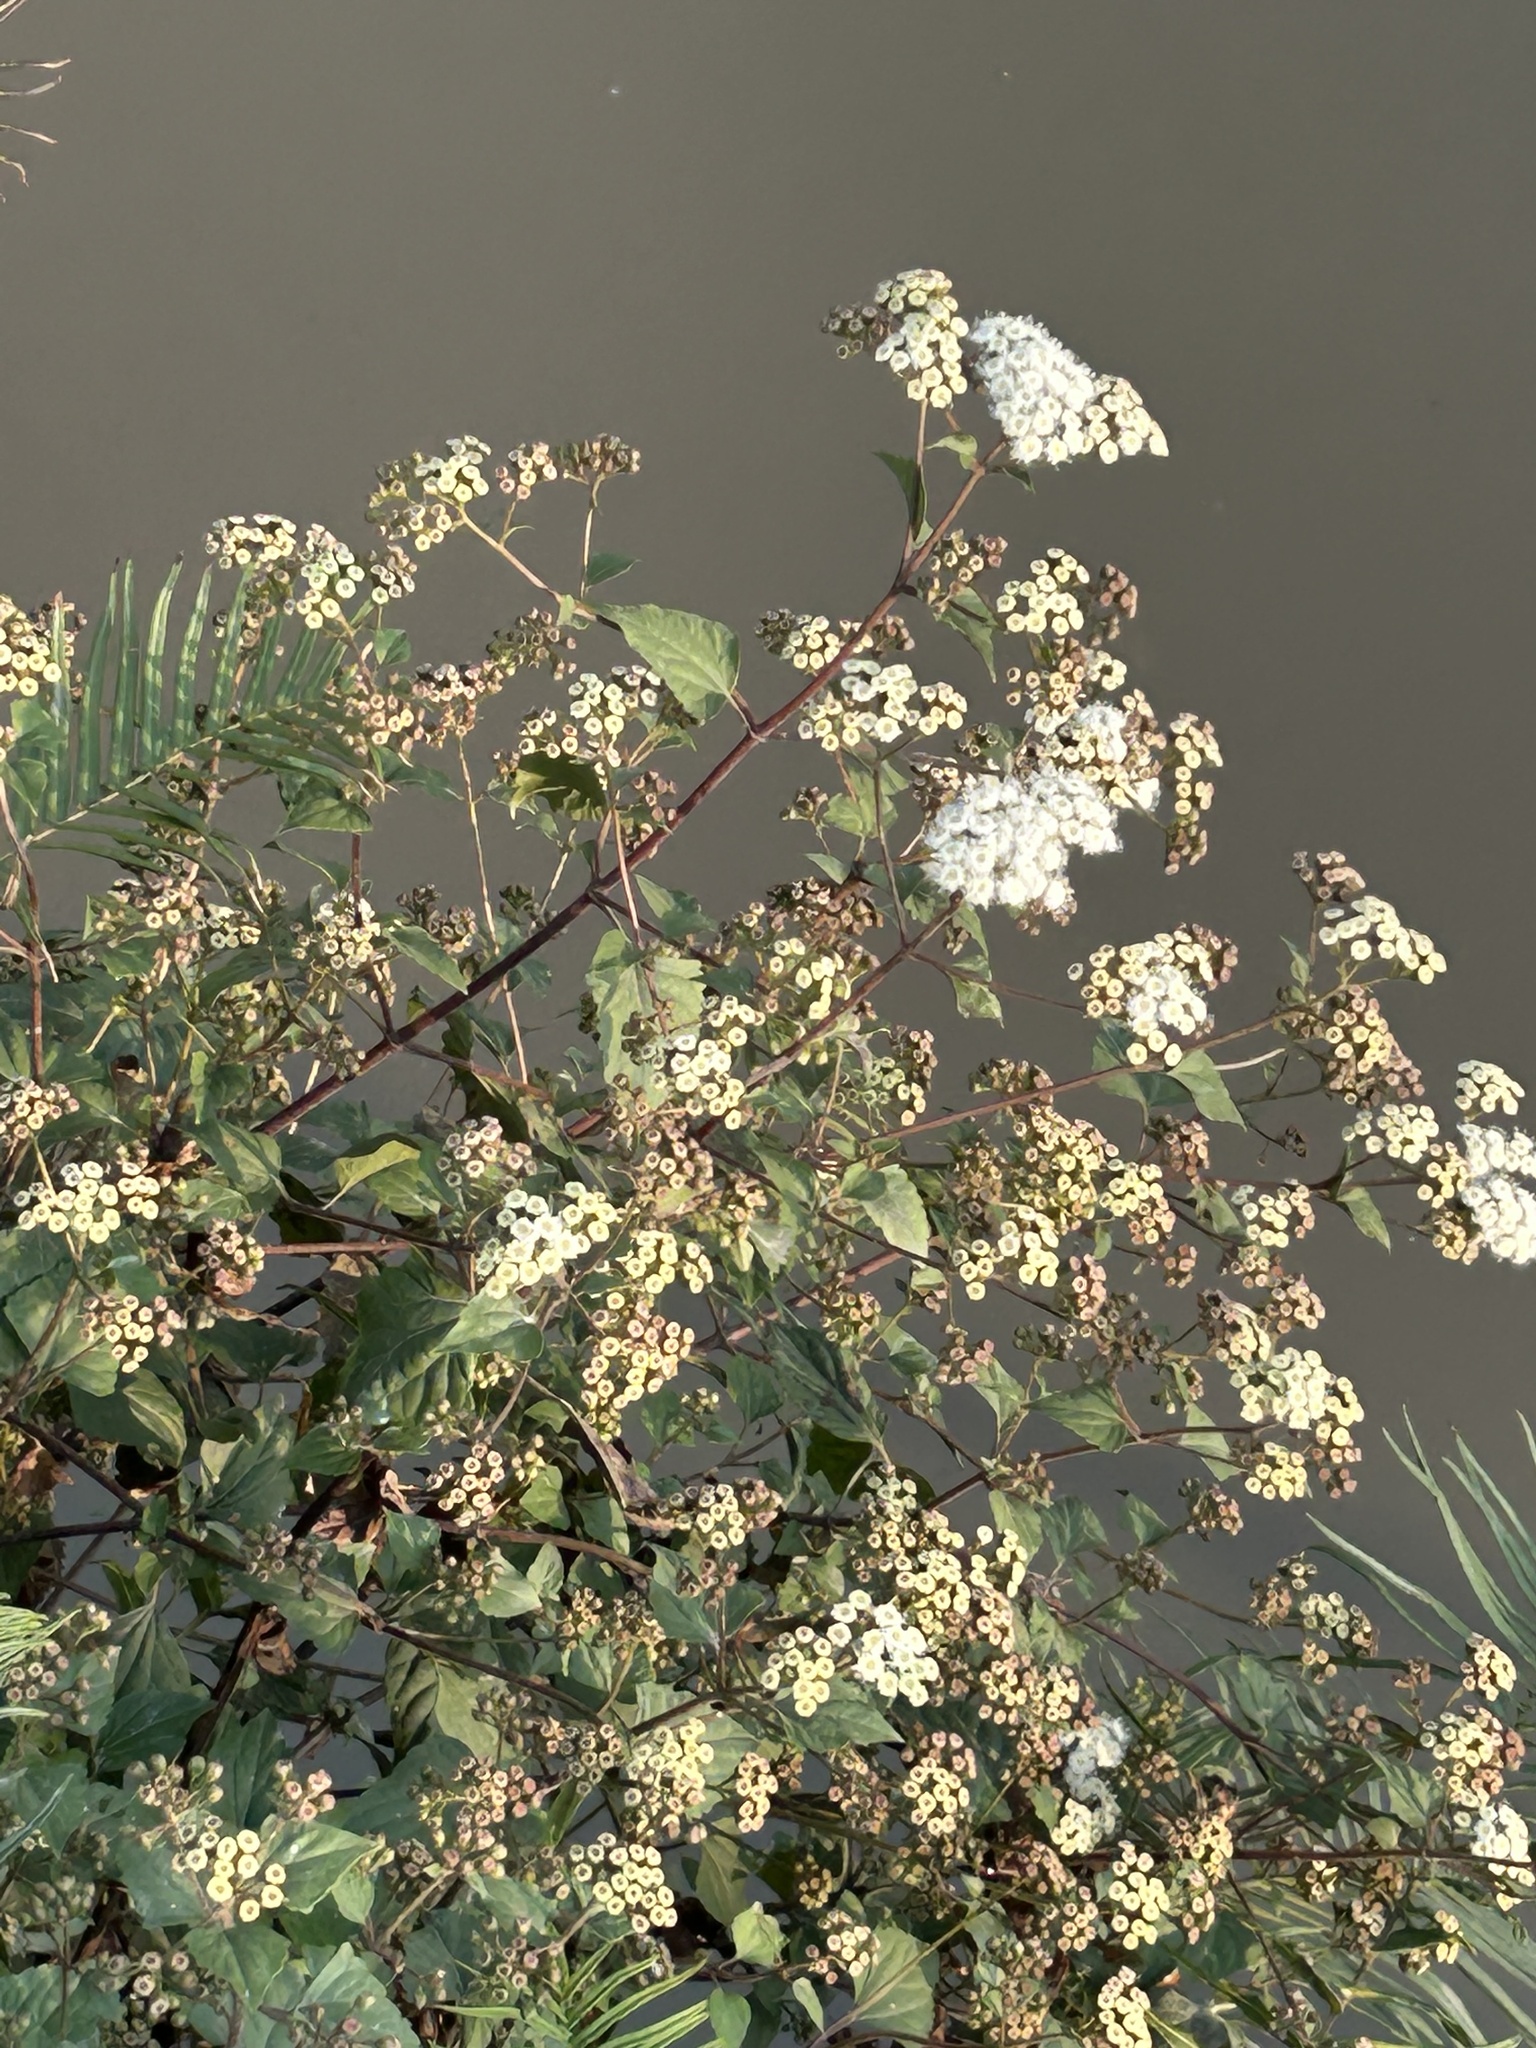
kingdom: Plantae
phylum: Tracheophyta
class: Magnoliopsida
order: Asterales
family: Asteraceae
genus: Ageratina
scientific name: Ageratina adenophora
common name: Sticky snakeroot
